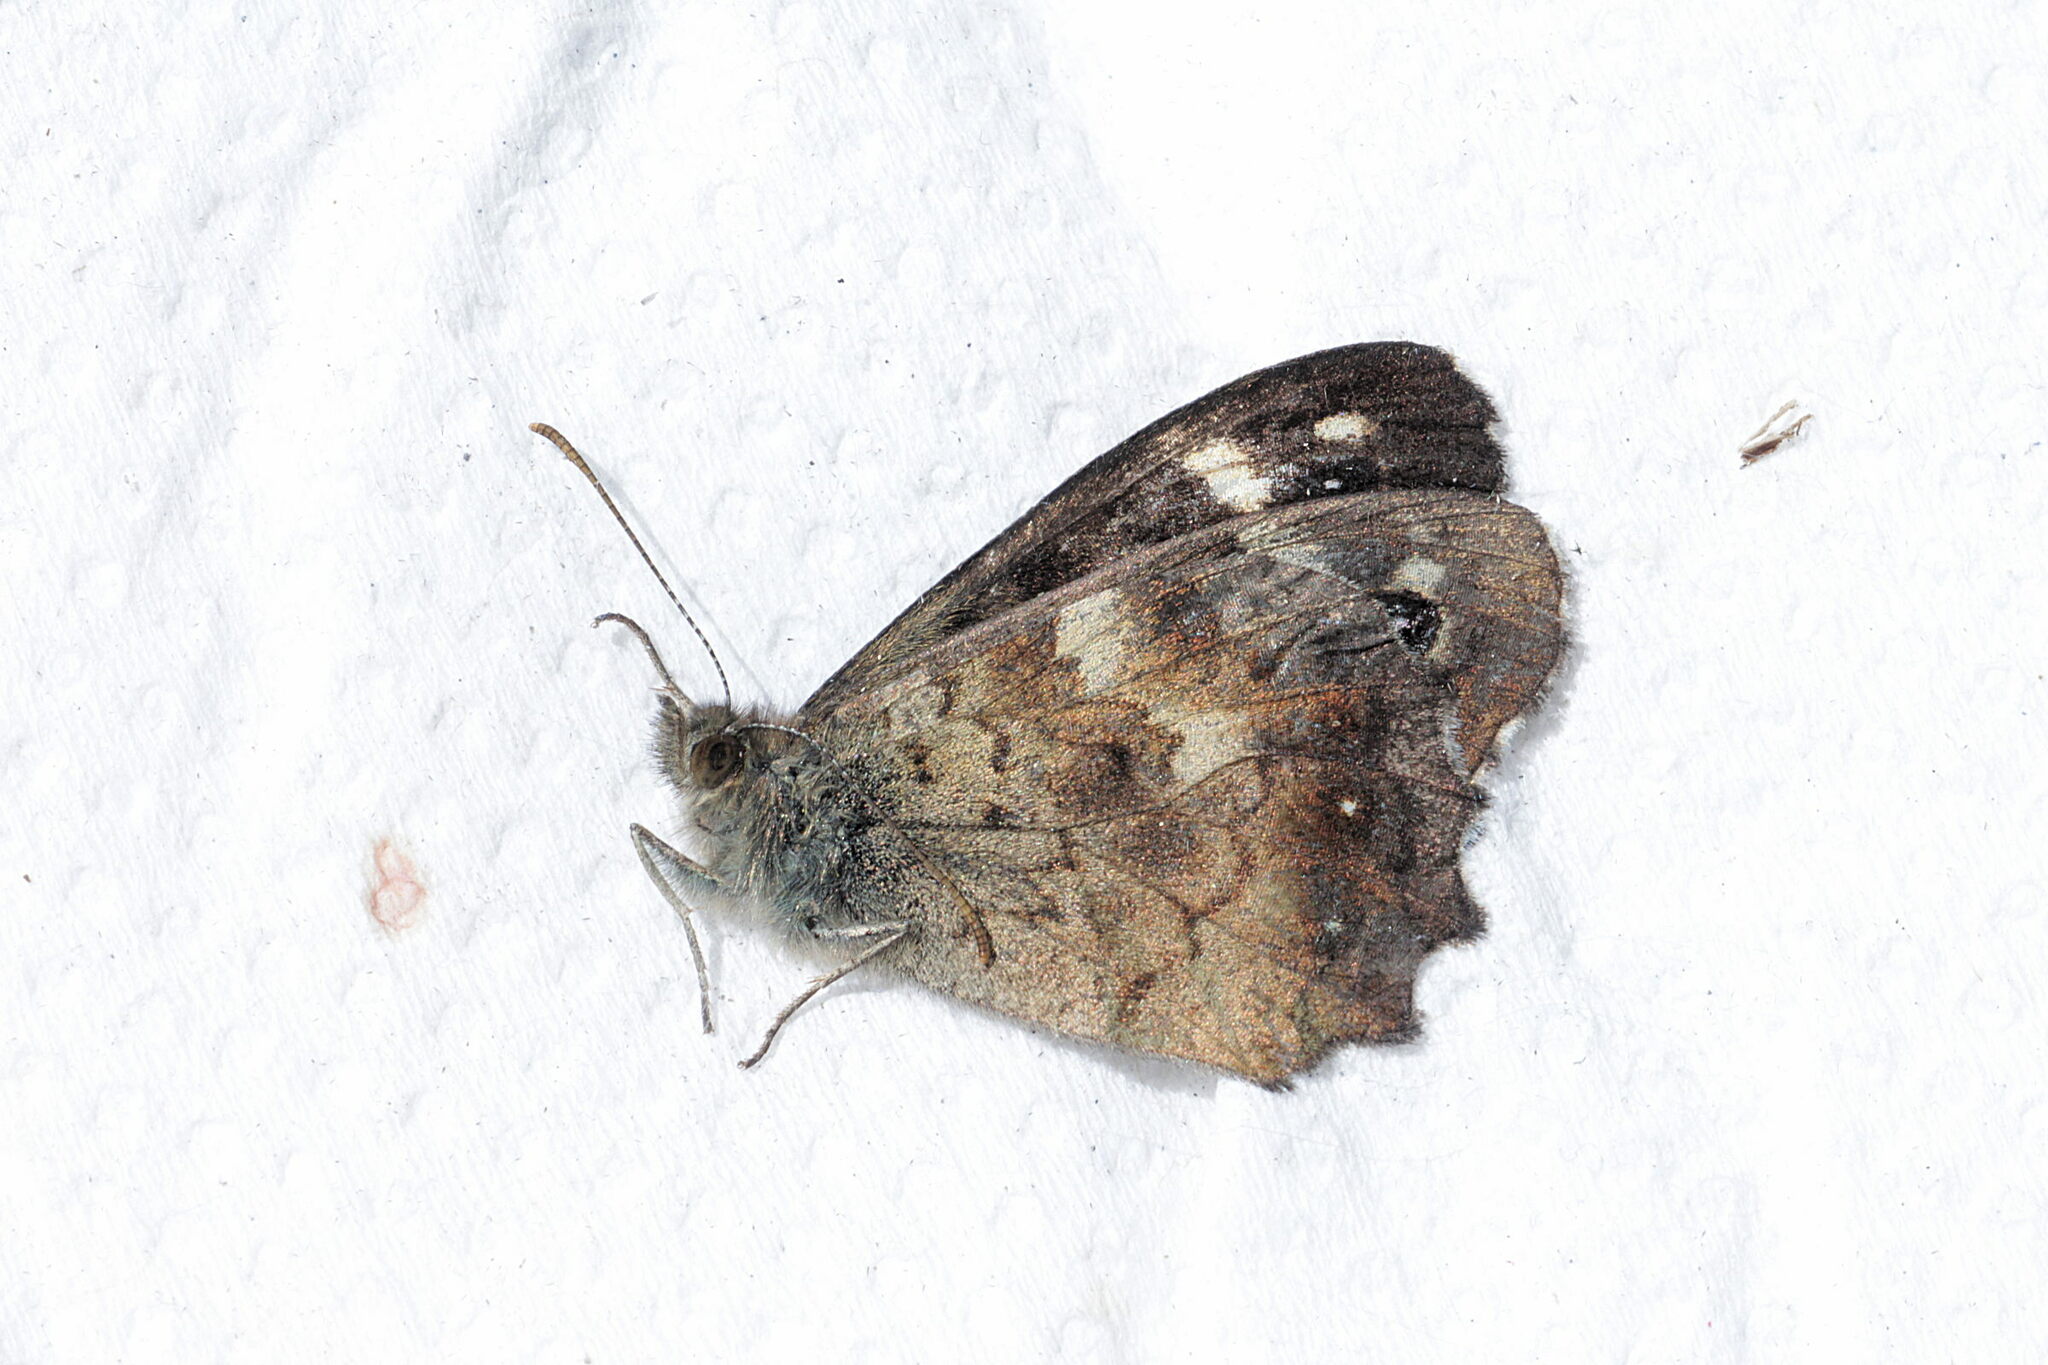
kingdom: Animalia
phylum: Arthropoda
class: Insecta
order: Lepidoptera
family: Nymphalidae
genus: Pararge
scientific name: Pararge aegeria
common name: Speckled wood
